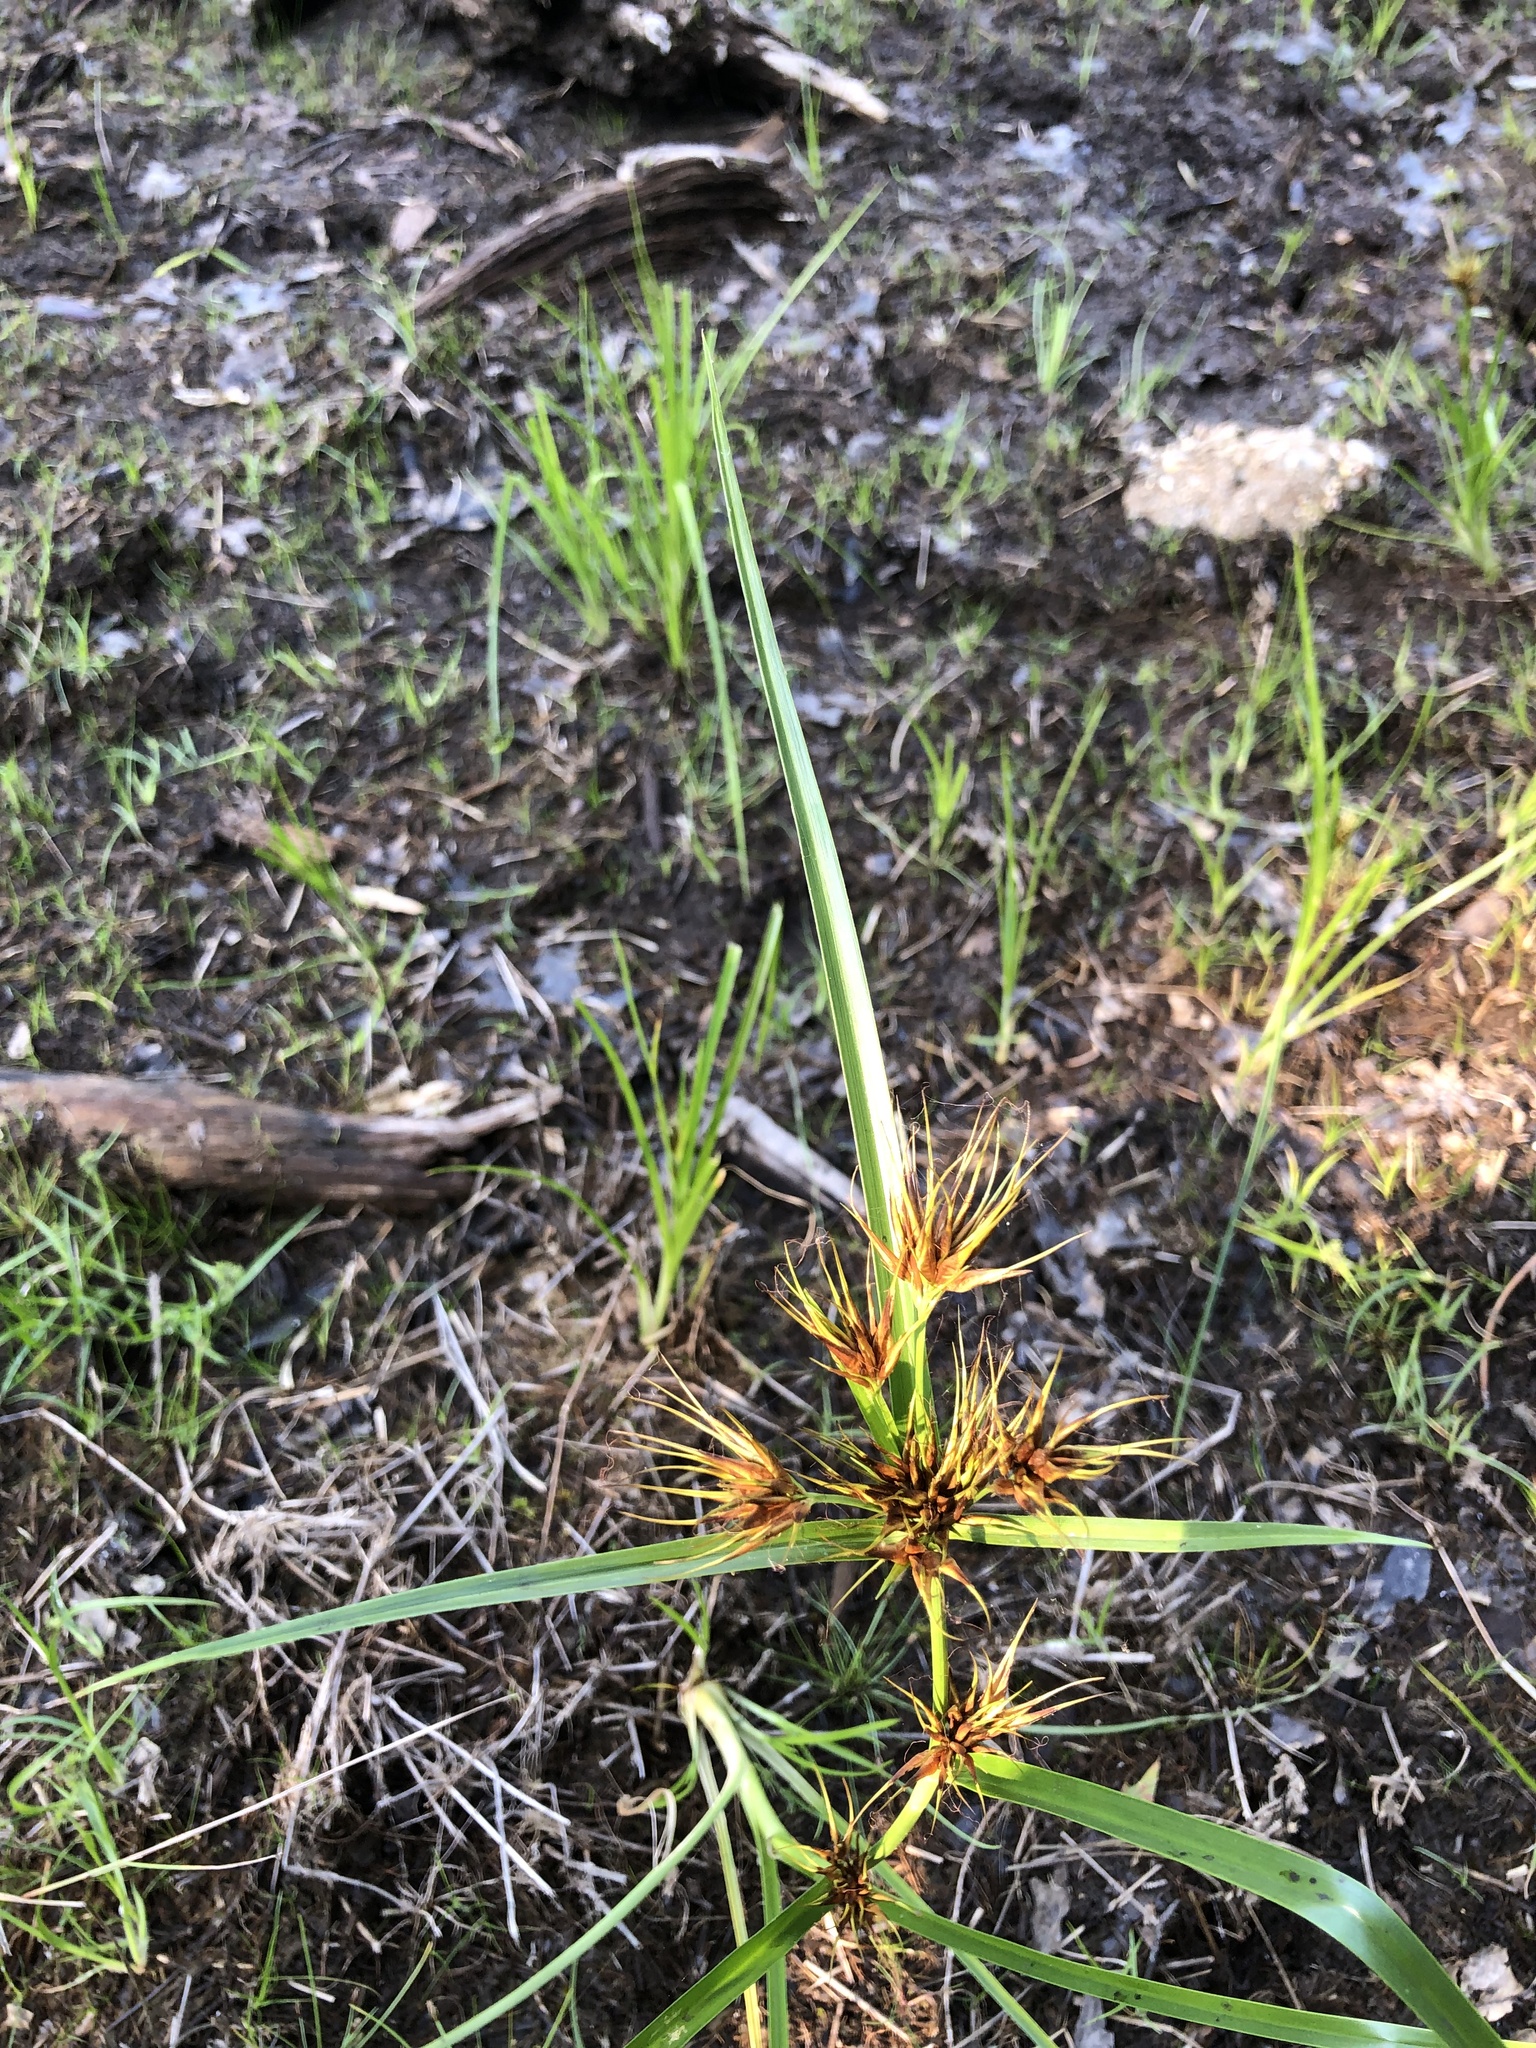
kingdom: Plantae
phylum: Tracheophyta
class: Liliopsida
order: Poales
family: Cyperaceae
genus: Rhynchospora
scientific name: Rhynchospora macrostachya
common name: Tall beakrush
